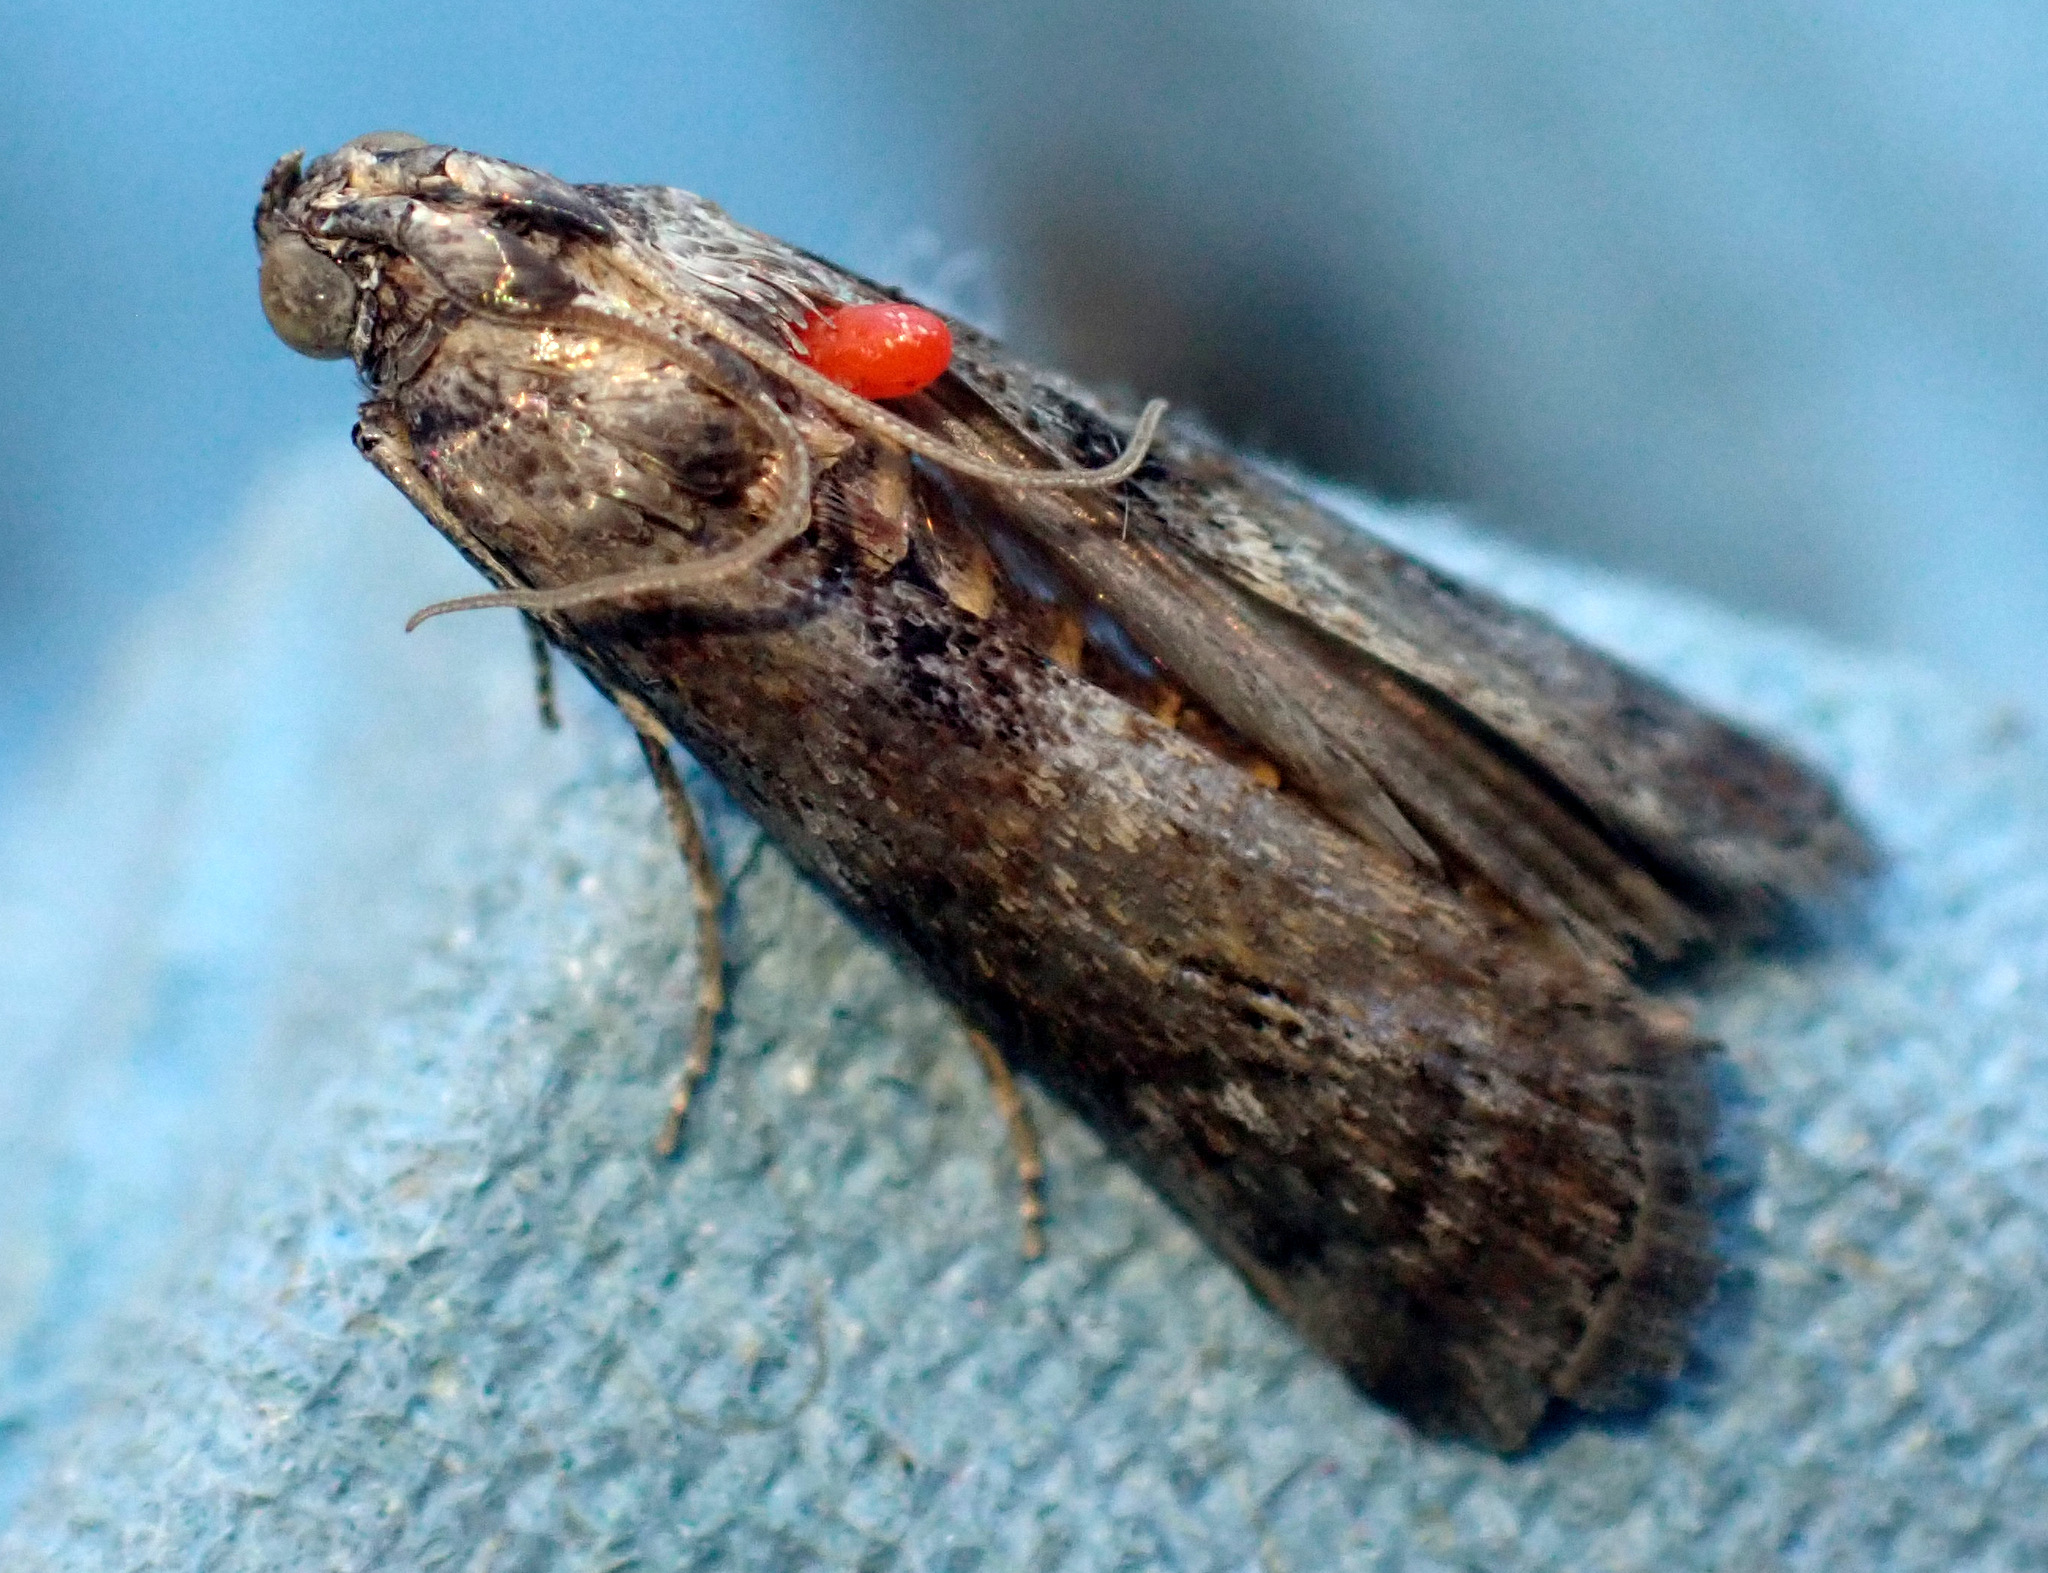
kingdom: Animalia
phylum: Arthropoda
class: Insecta
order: Lepidoptera
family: Pyralidae
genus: Phycita
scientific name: Phycita roborella
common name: Dotted oak knot-horn
